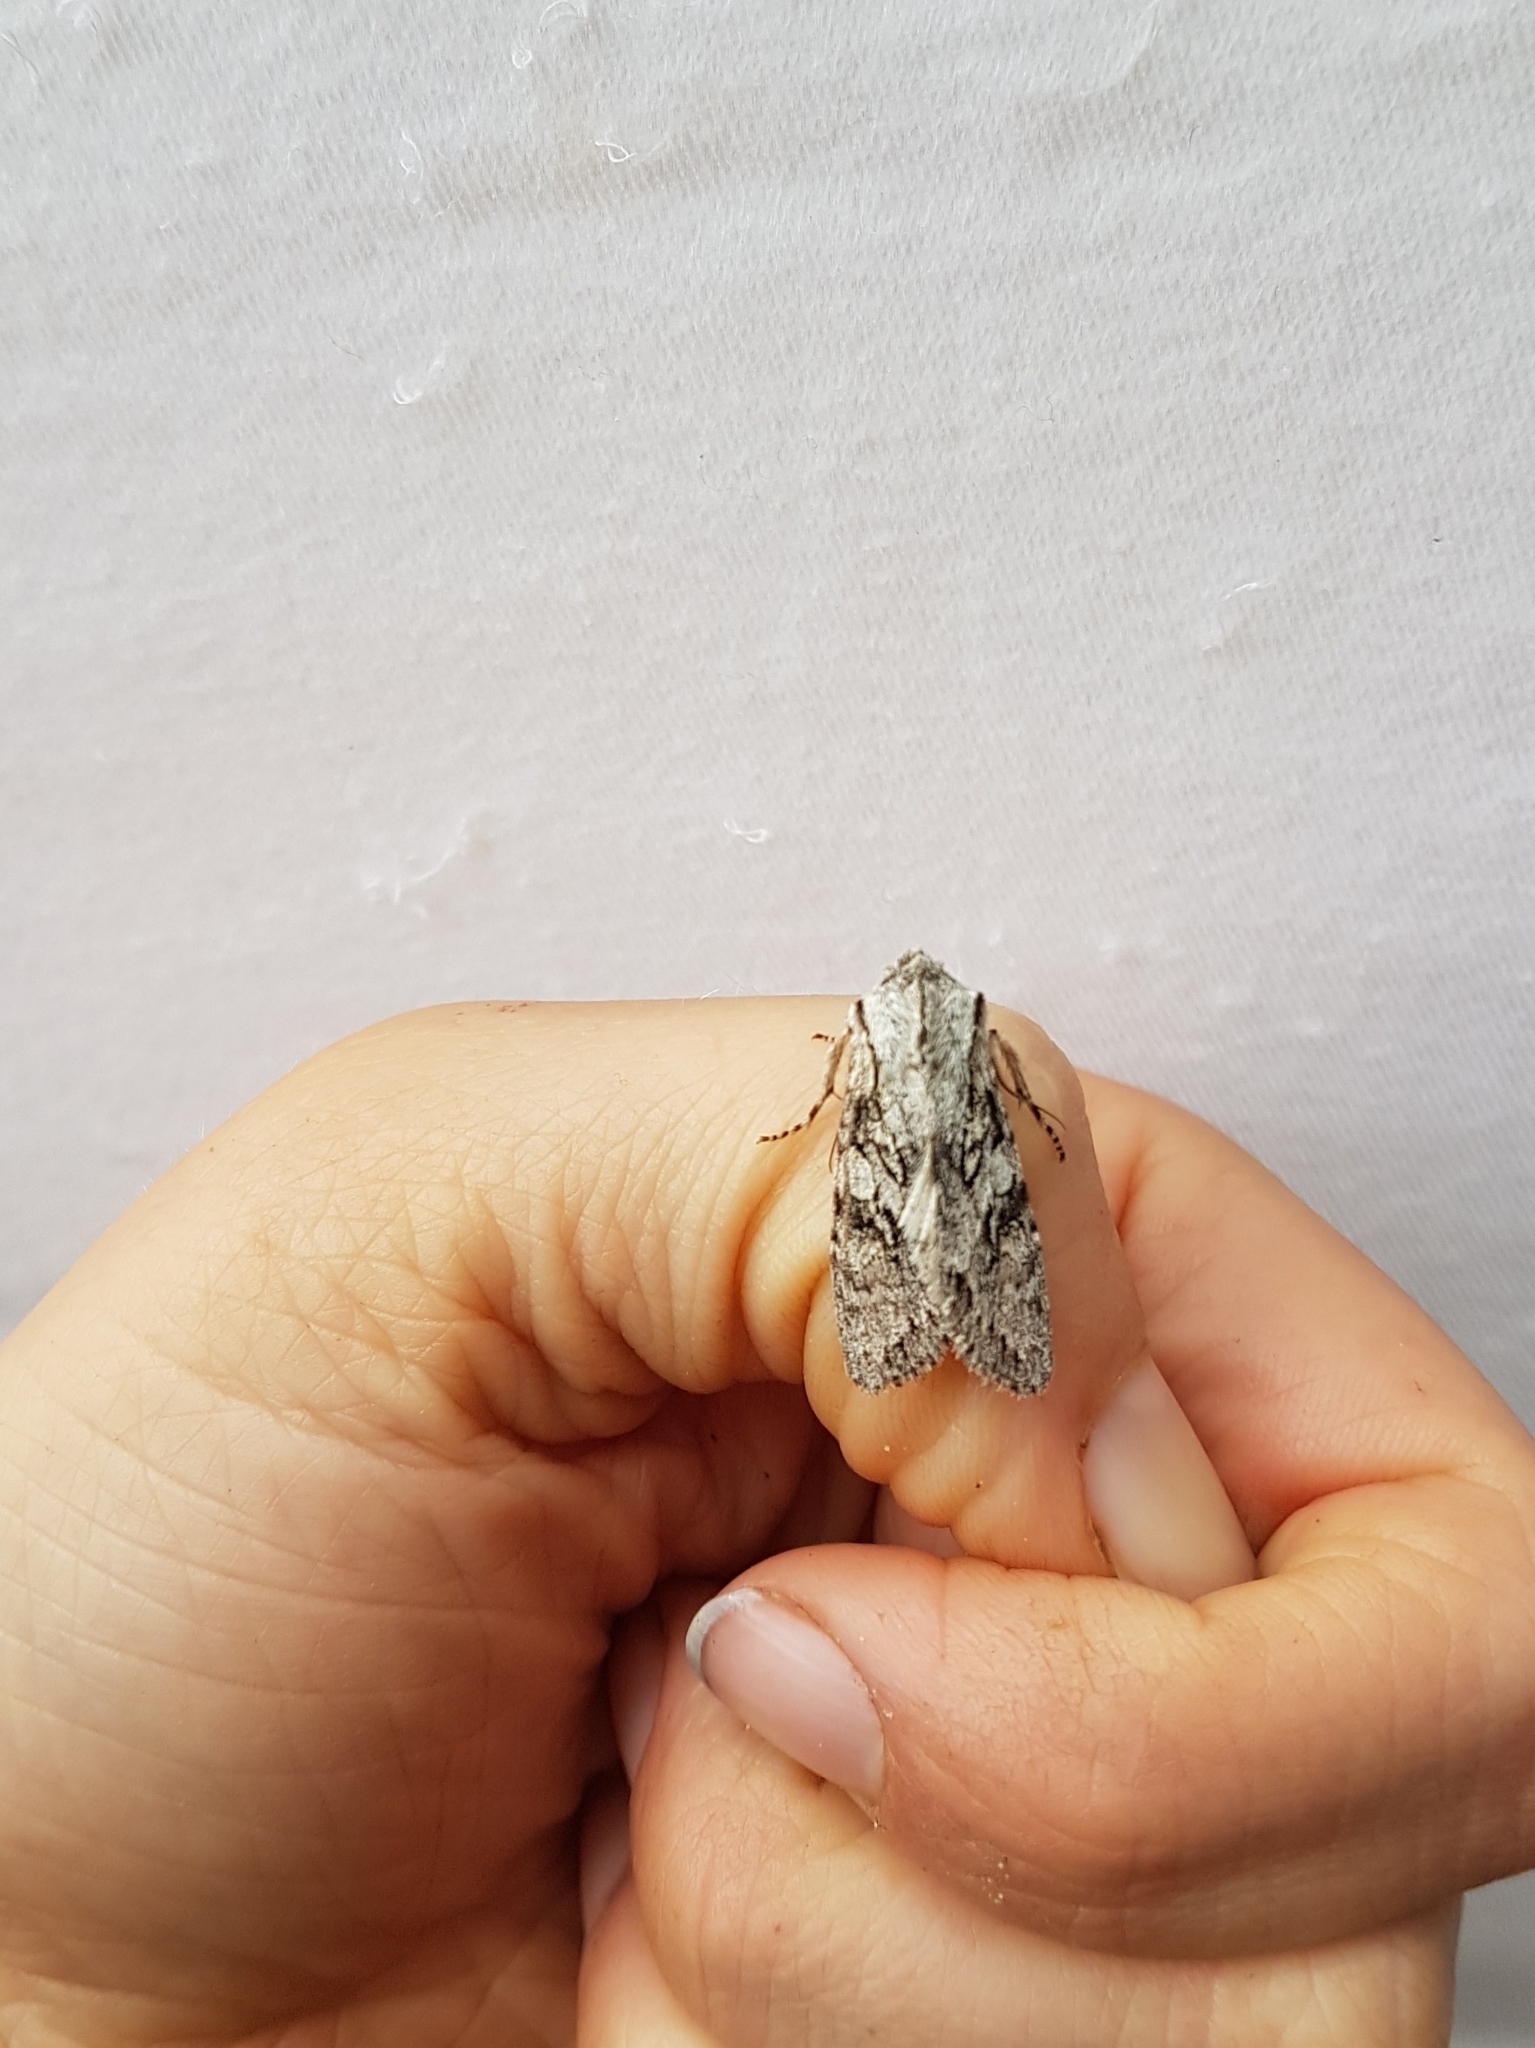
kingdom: Animalia
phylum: Arthropoda
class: Insecta
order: Lepidoptera
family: Noctuidae
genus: Egira
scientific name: Egira simplex
